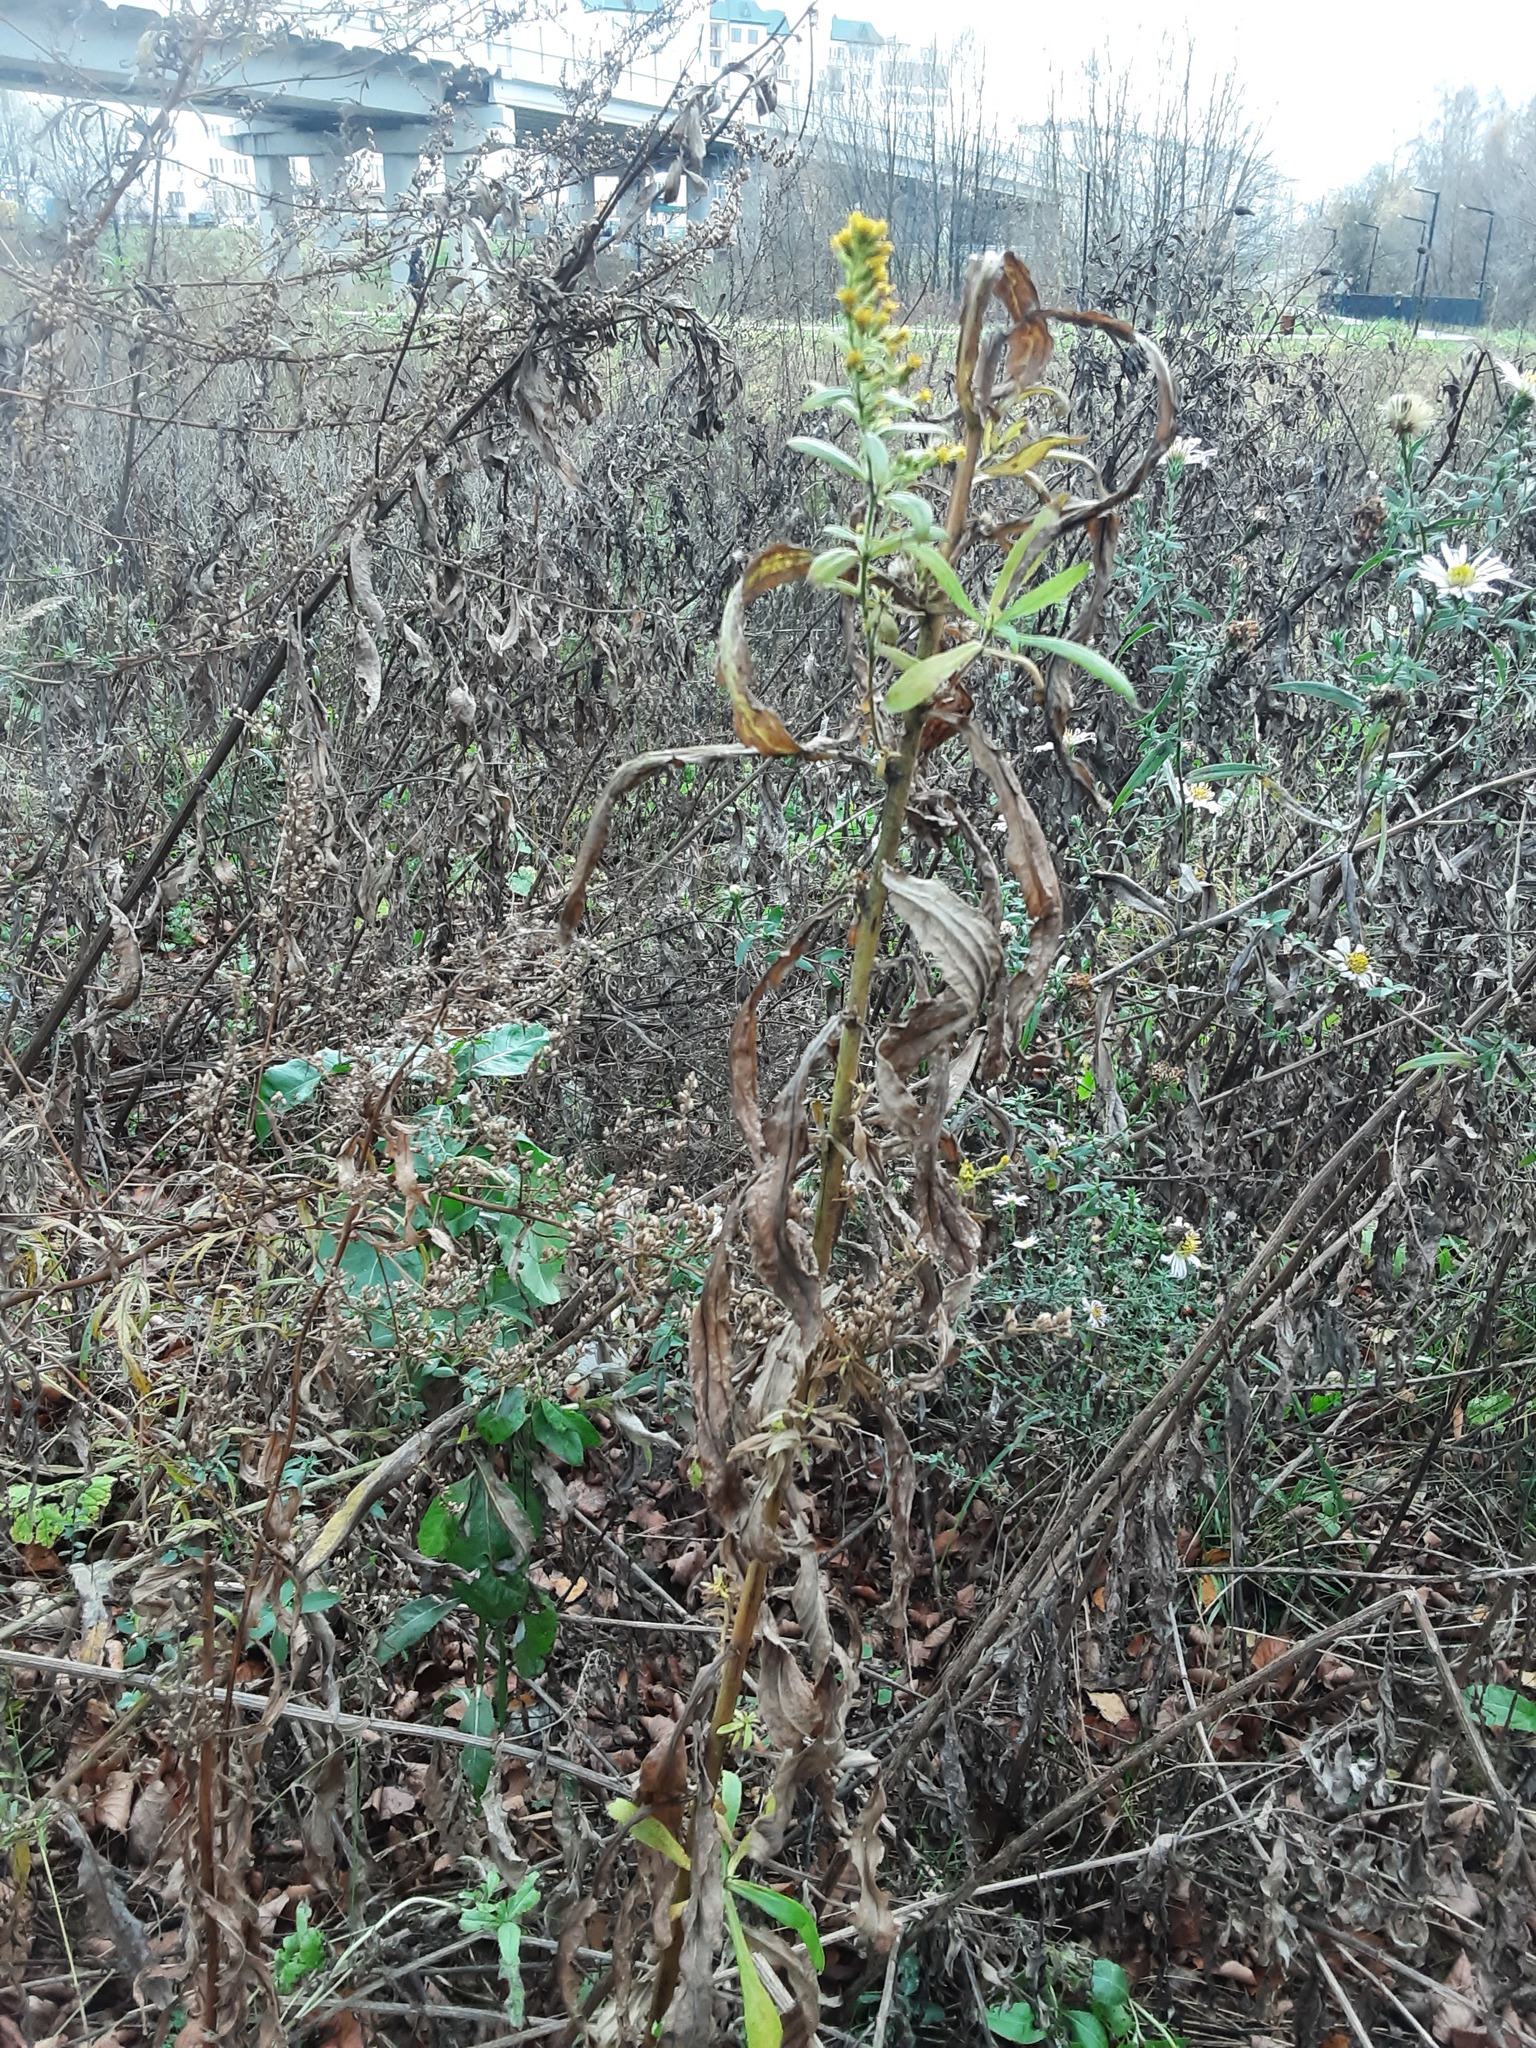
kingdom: Plantae
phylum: Tracheophyta
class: Magnoliopsida
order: Asterales
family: Asteraceae
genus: Solidago
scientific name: Solidago canadensis
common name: Canada goldenrod
